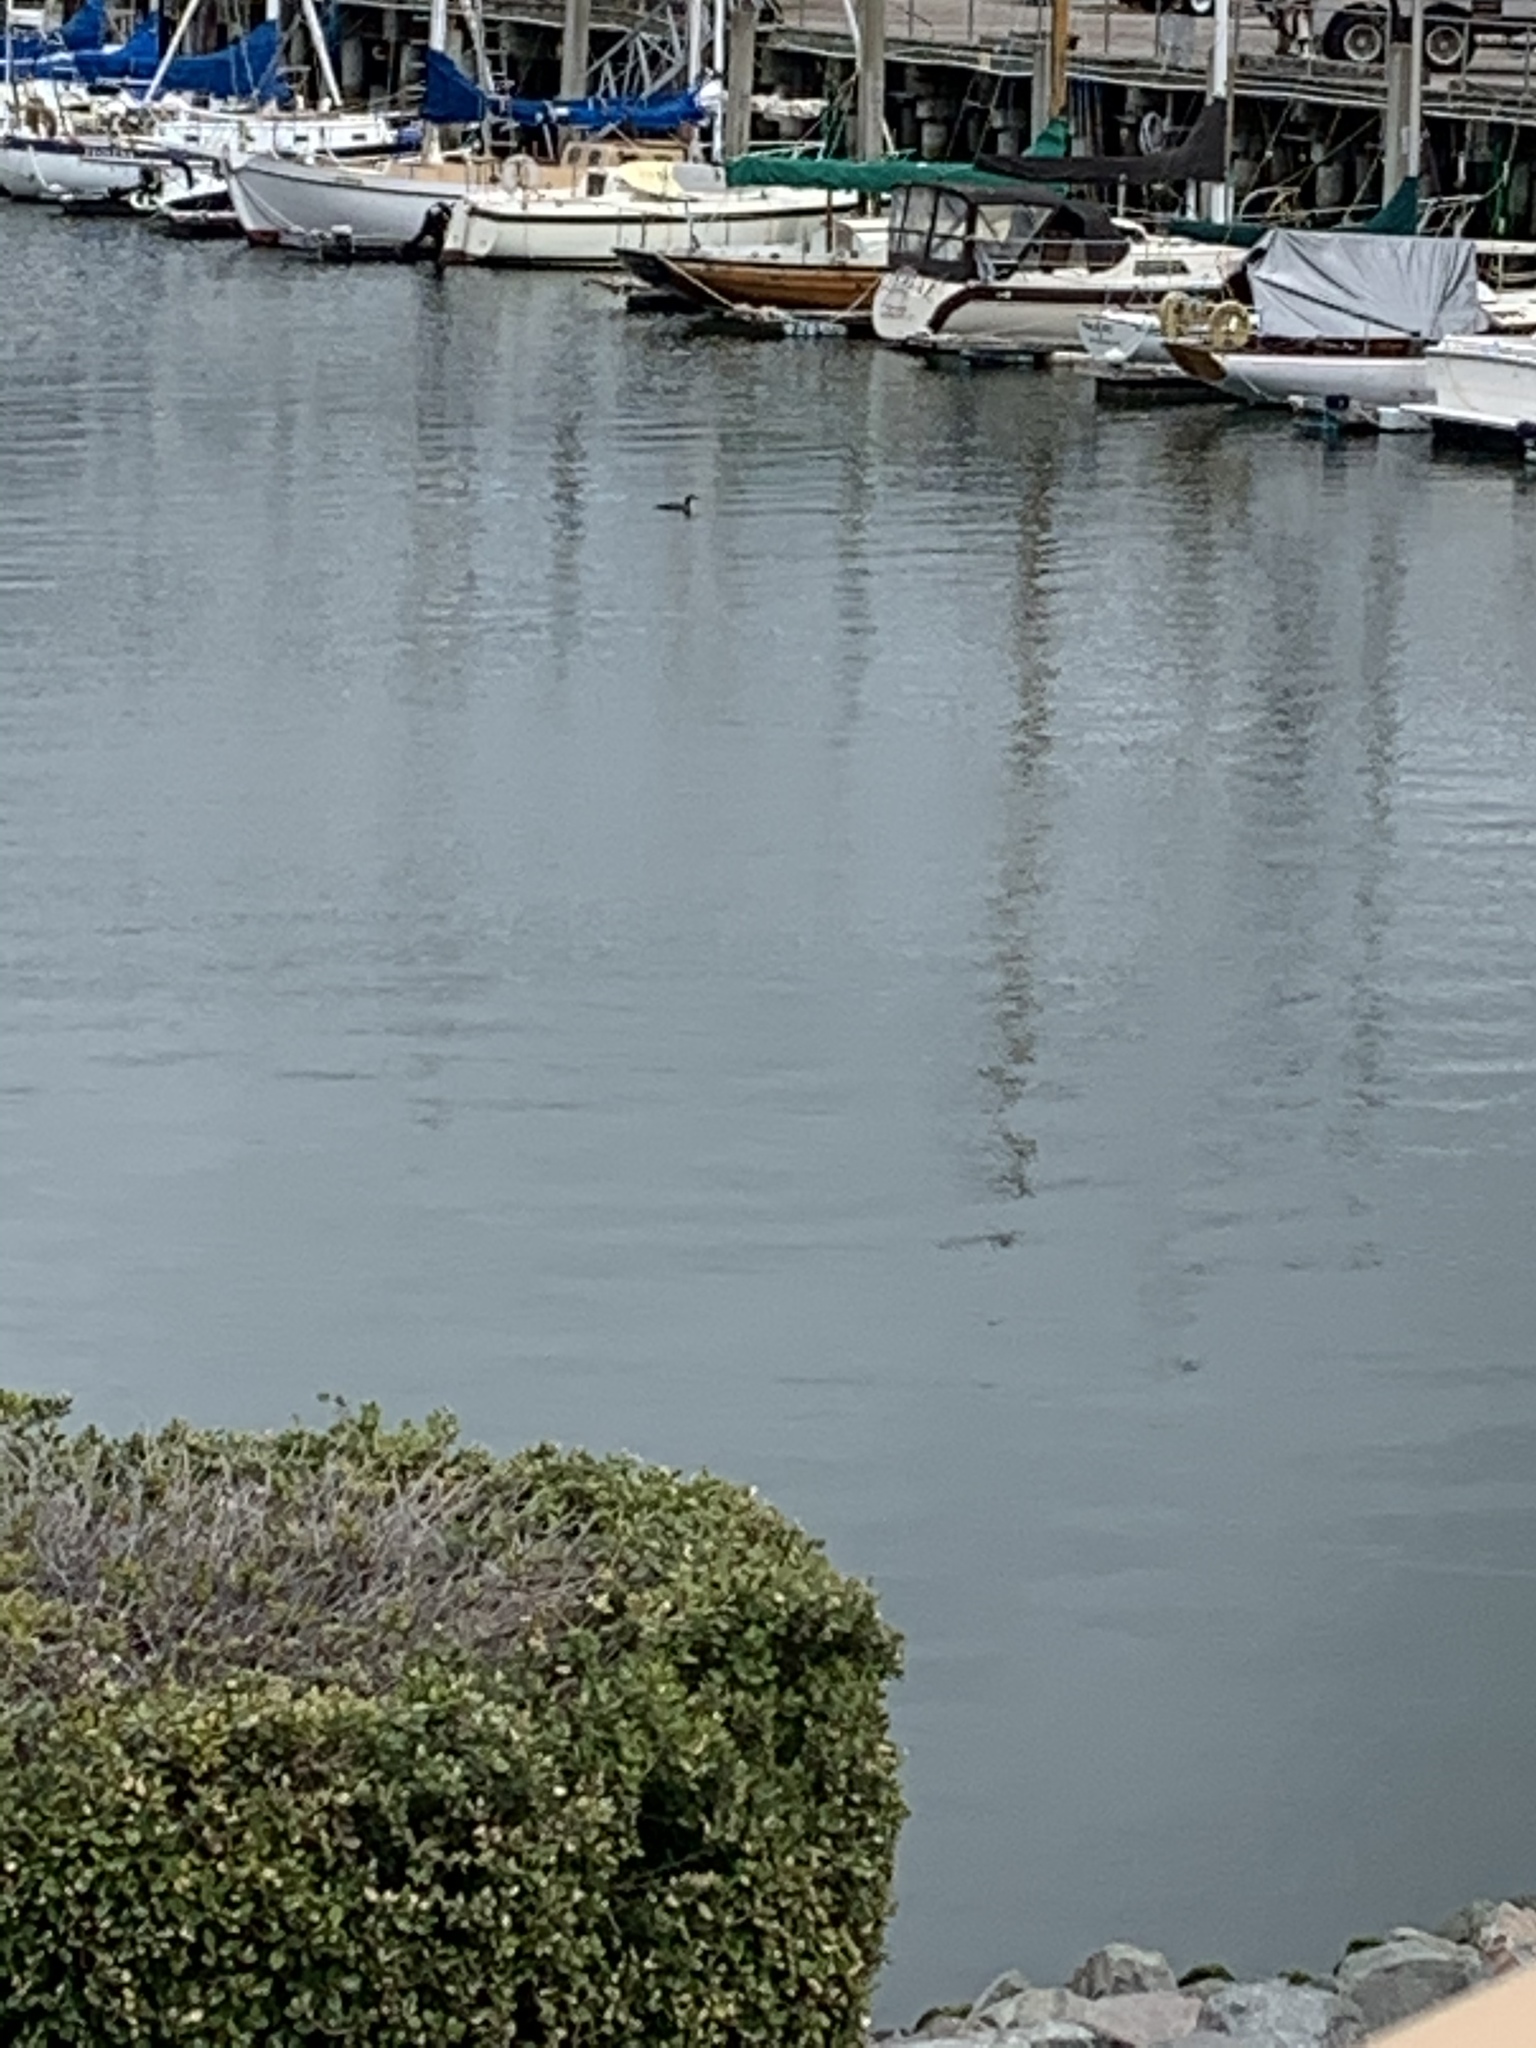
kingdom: Animalia
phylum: Chordata
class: Aves
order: Gaviiformes
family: Gaviidae
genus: Gavia
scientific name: Gavia immer
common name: Common loon
